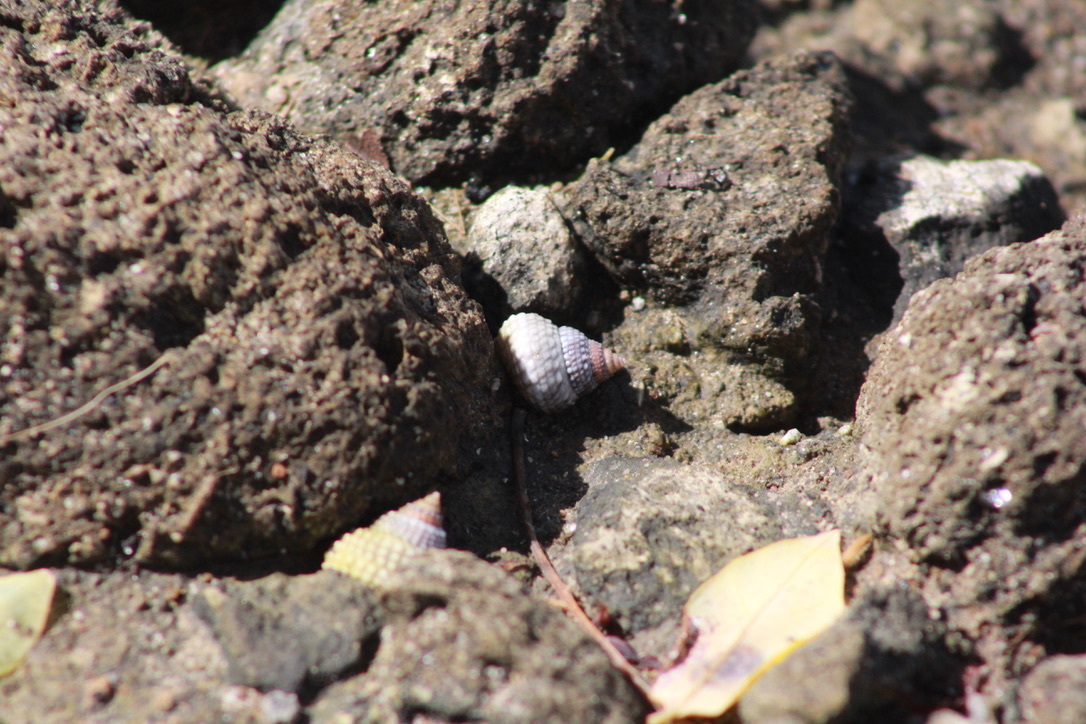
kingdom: Animalia
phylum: Mollusca
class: Gastropoda
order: Littorinimorpha
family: Littorinidae
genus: Cenchritis
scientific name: Cenchritis muricatus
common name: Beaded periwinkle
